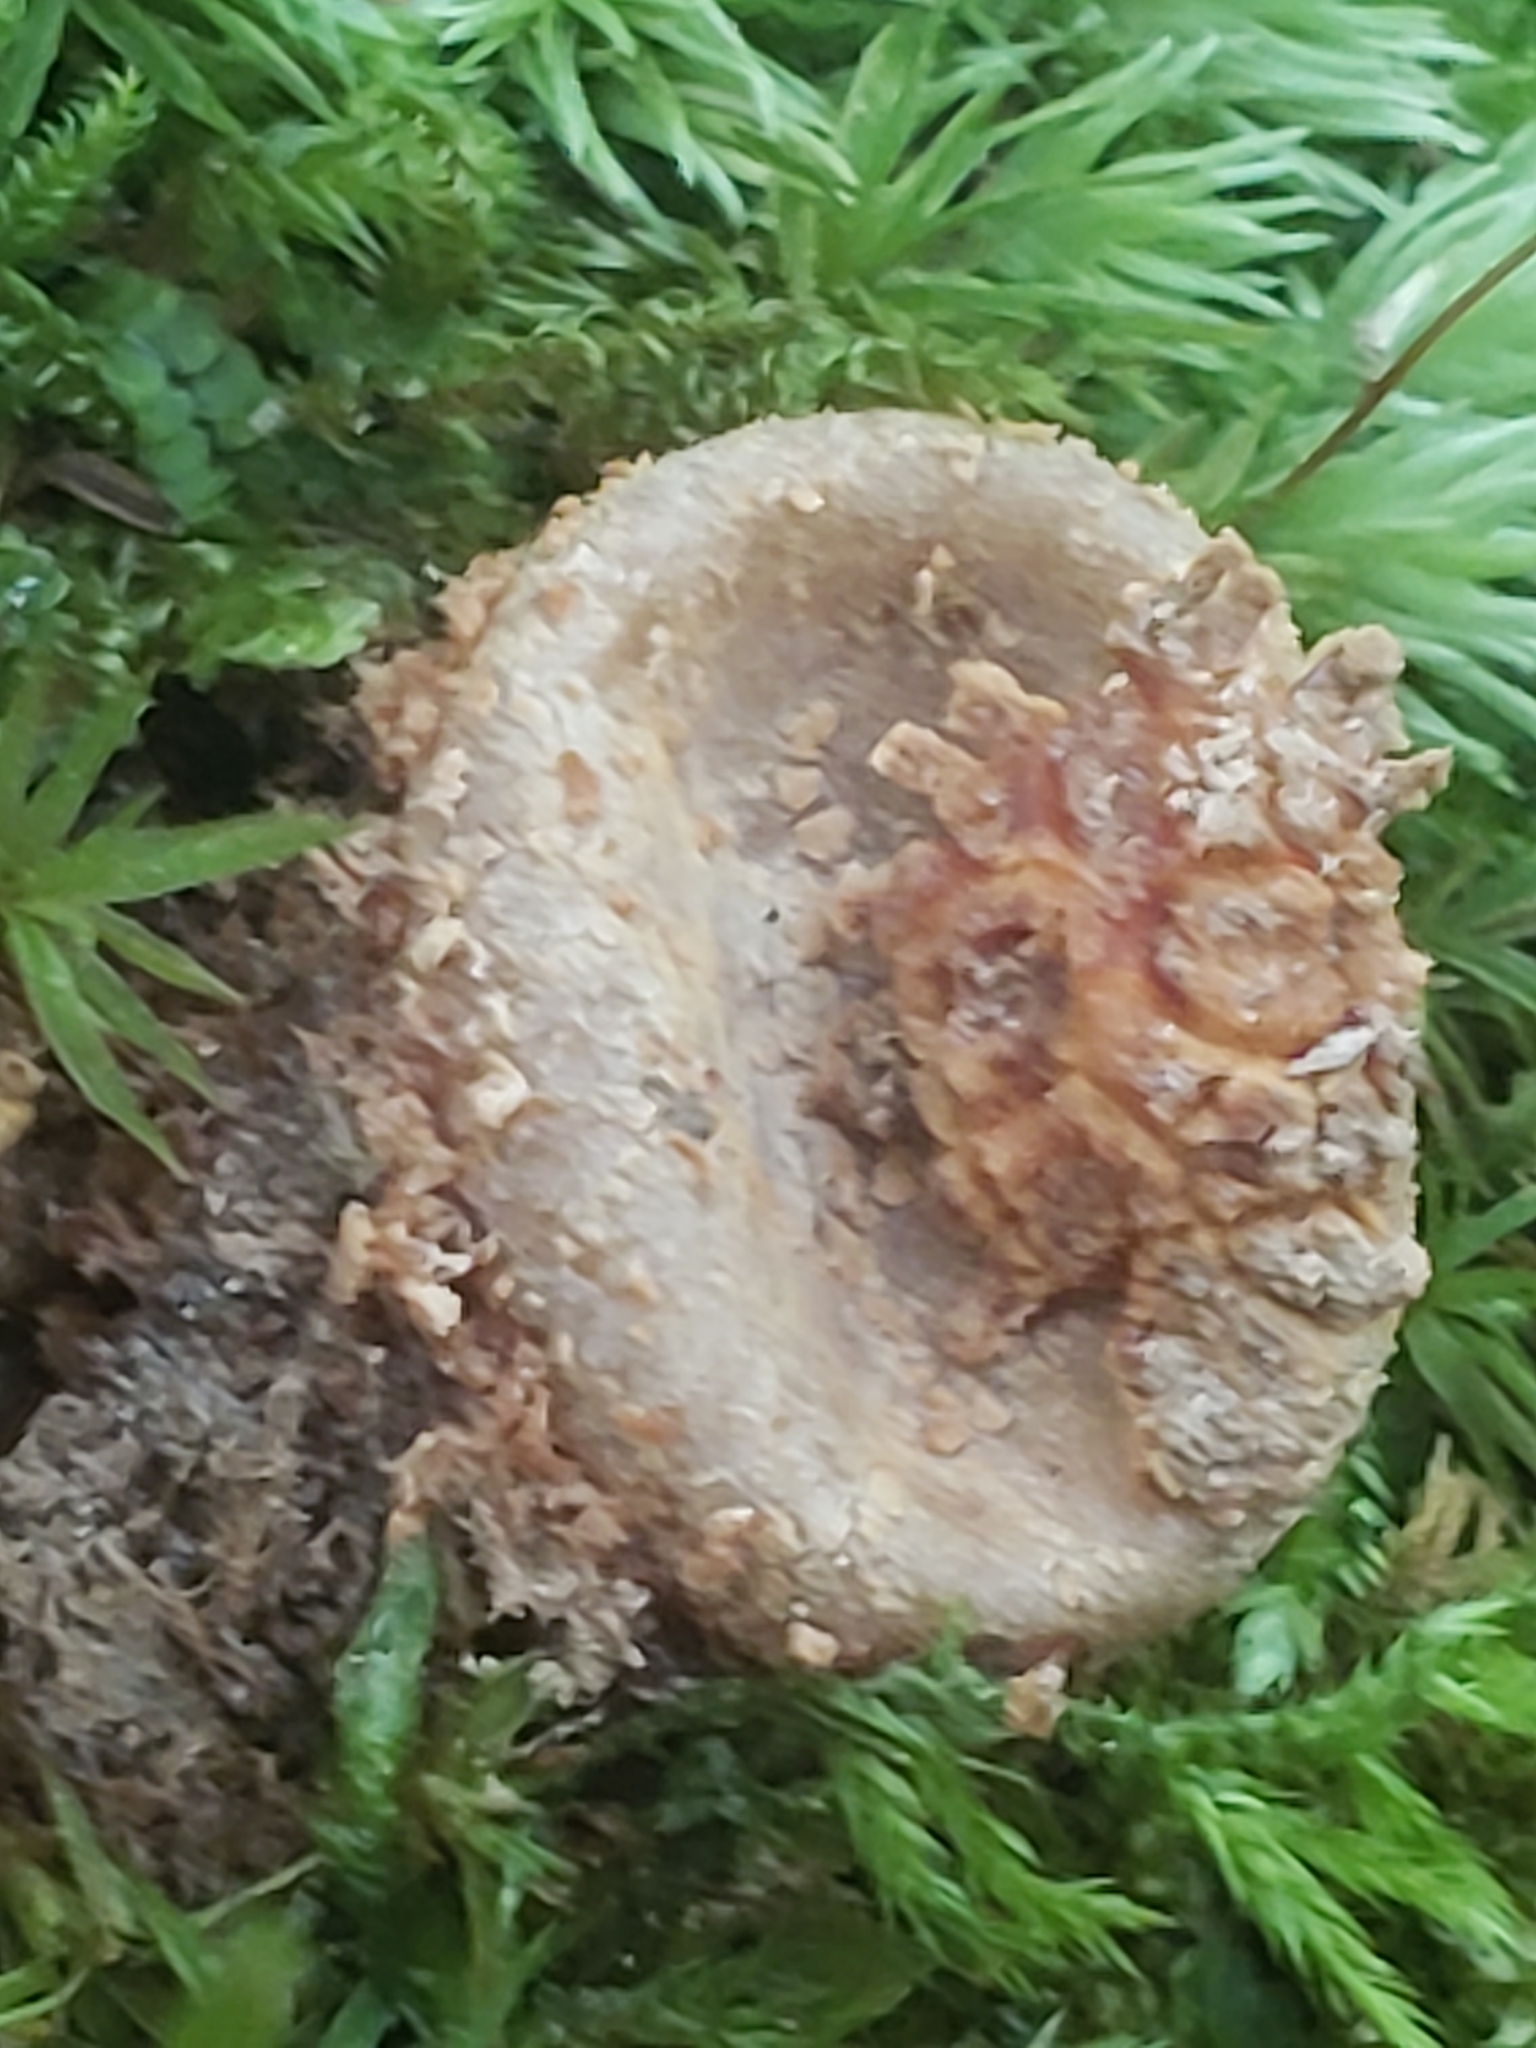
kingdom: Fungi
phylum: Basidiomycota
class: Agaricomycetes
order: Boletales
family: Calostomataceae
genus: Calostoma
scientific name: Calostoma ravenelii
